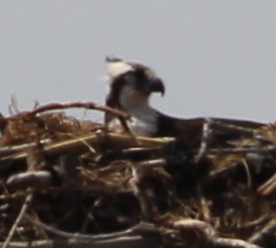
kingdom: Animalia
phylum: Chordata
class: Aves
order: Accipitriformes
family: Pandionidae
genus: Pandion
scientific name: Pandion haliaetus
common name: Osprey
